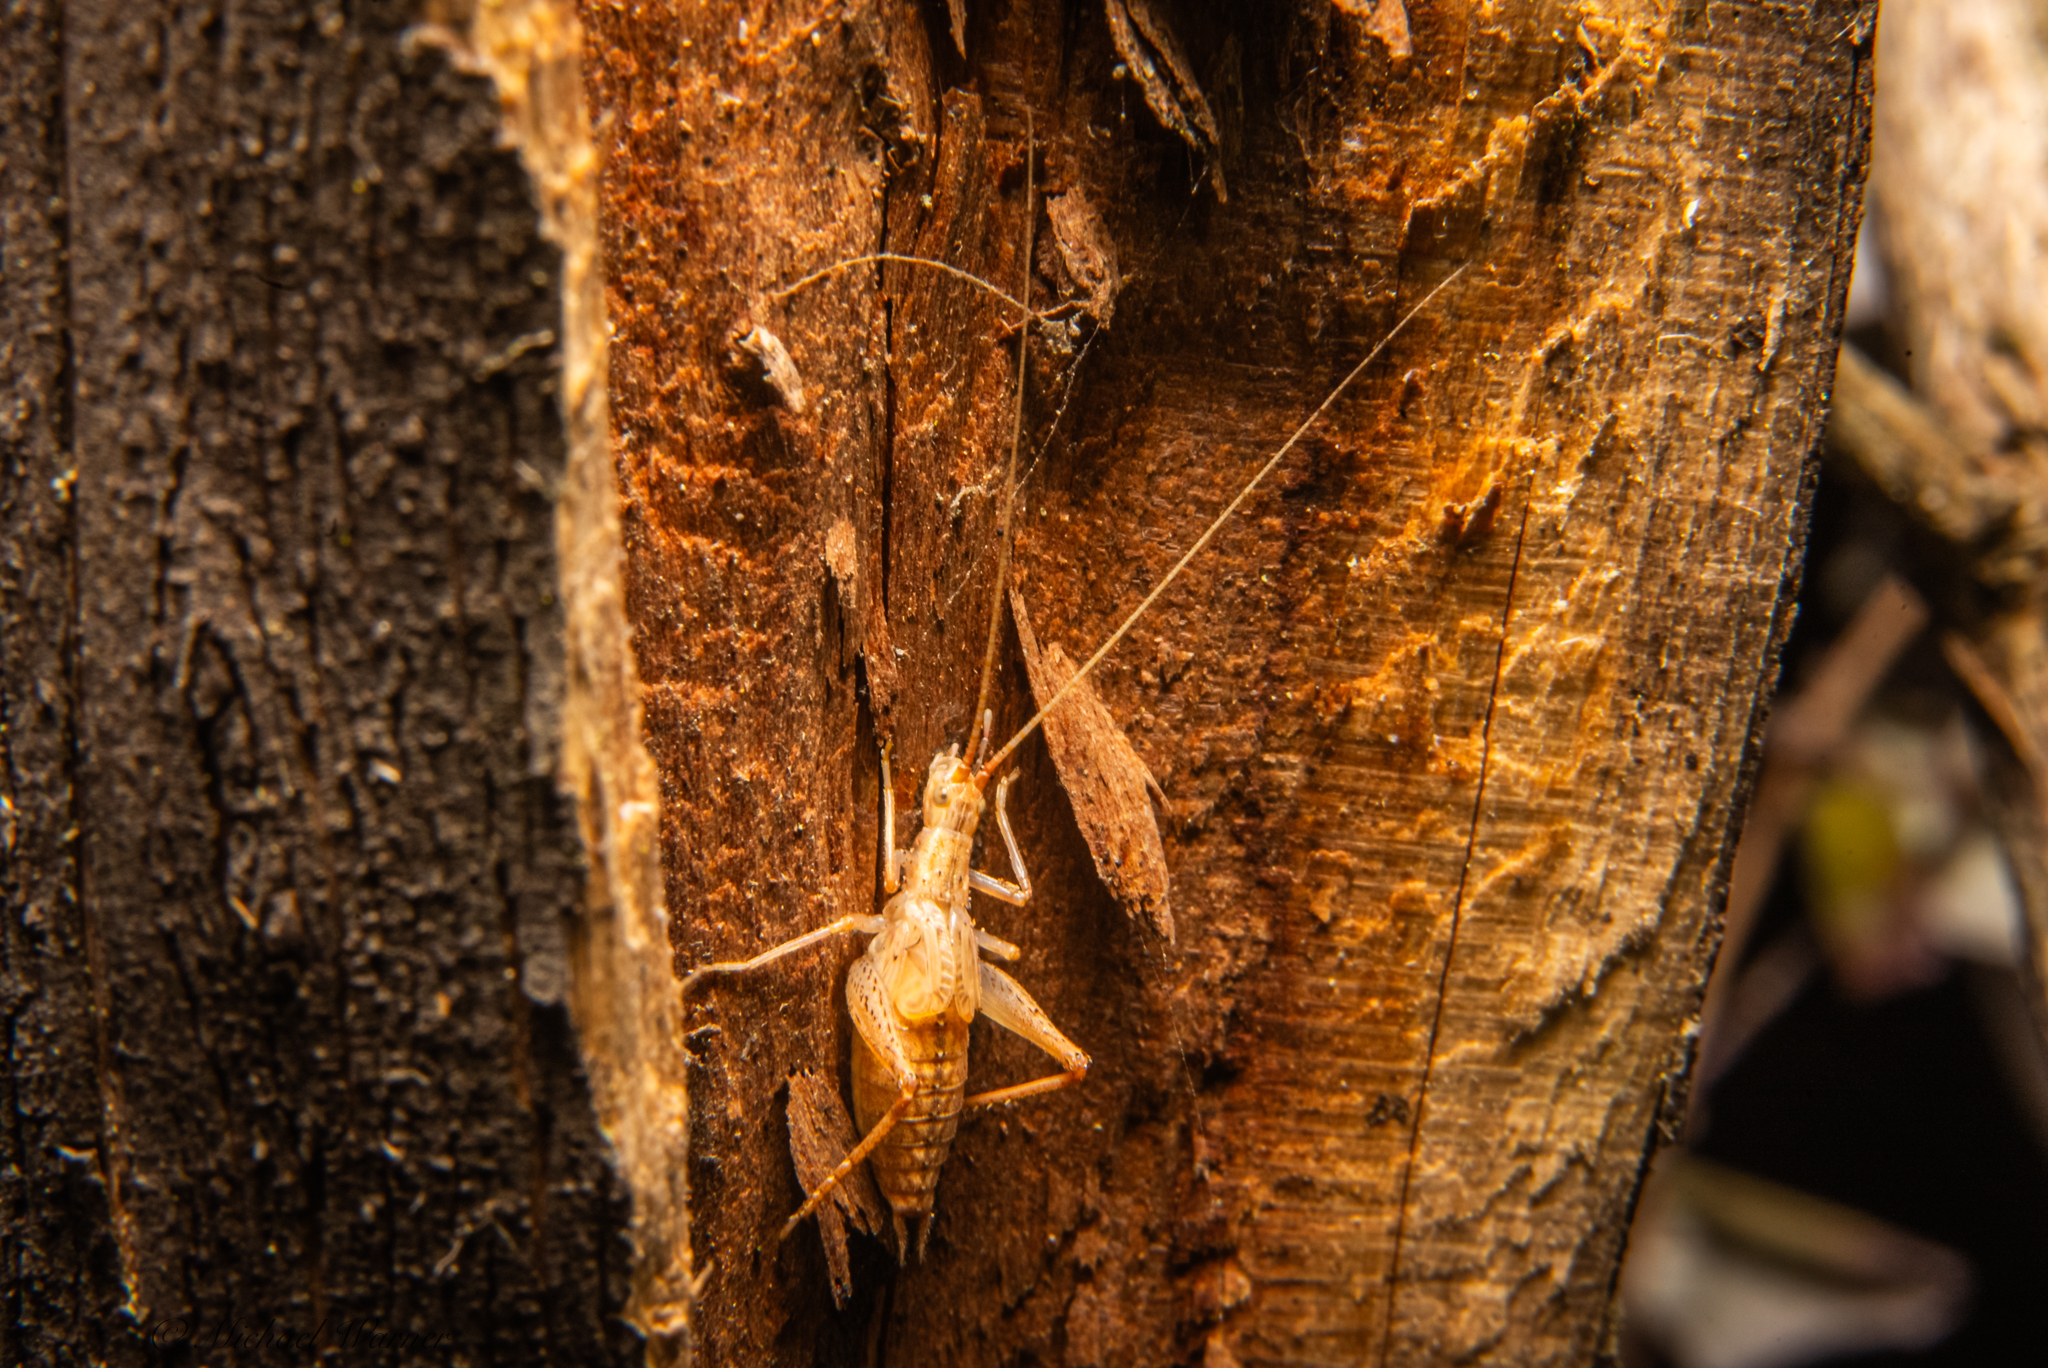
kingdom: Animalia
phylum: Arthropoda
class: Insecta
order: Orthoptera
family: Gryllidae
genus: Oecanthus
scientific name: Oecanthus californicus
